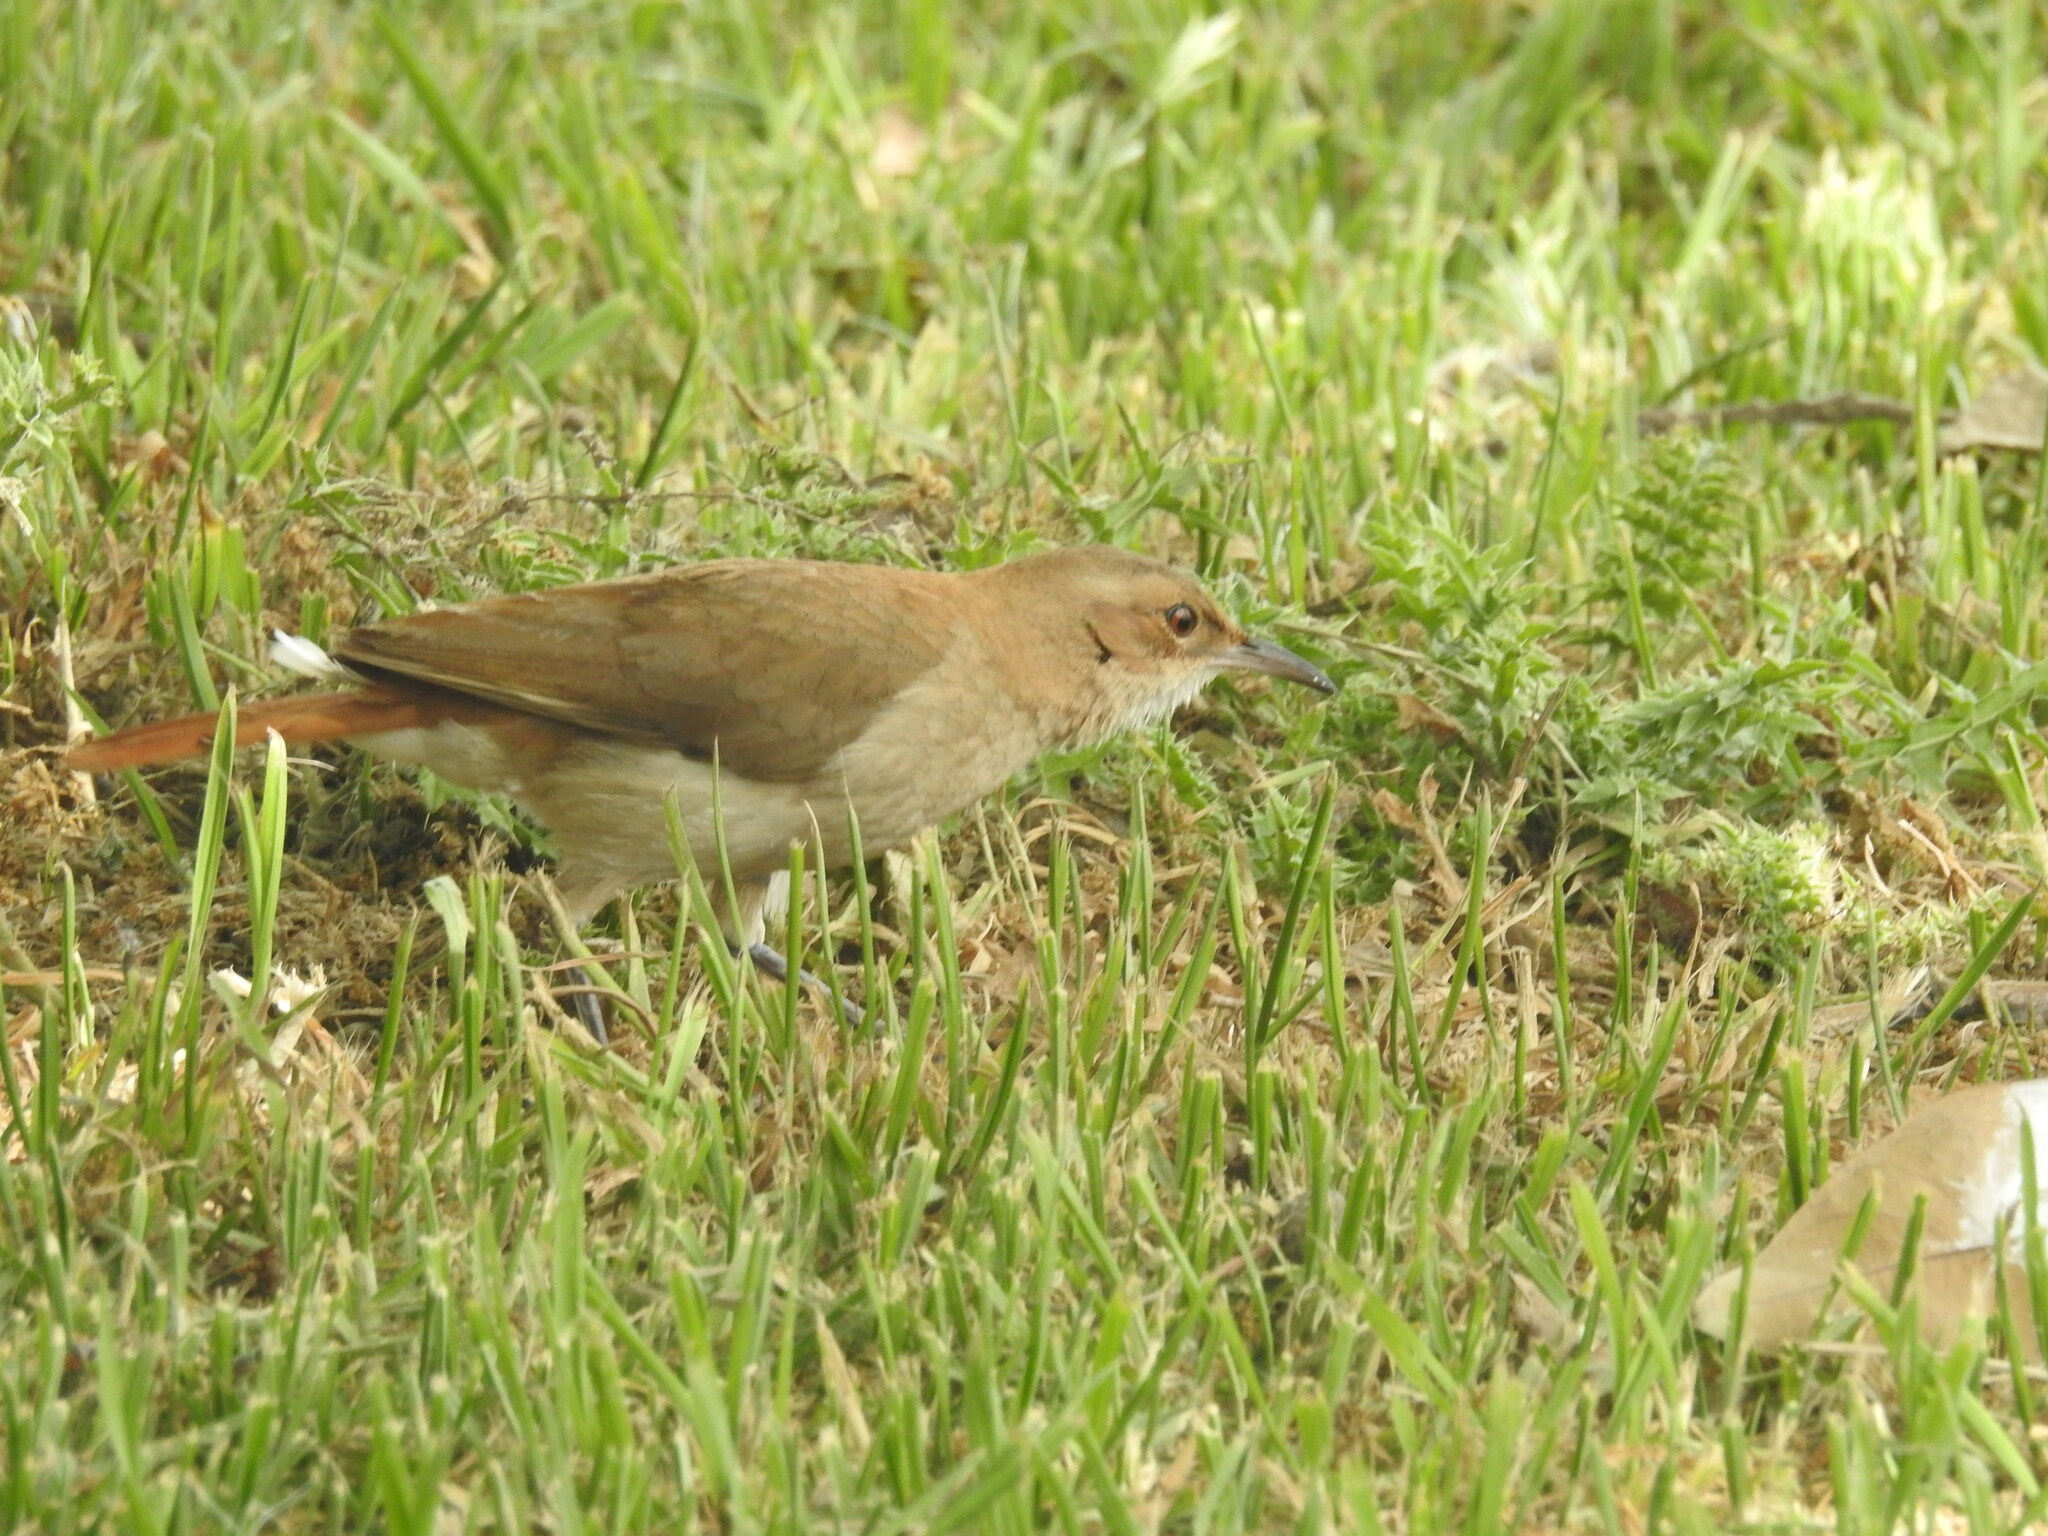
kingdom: Animalia
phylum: Chordata
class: Aves
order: Passeriformes
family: Furnariidae
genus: Furnarius
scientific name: Furnarius rufus
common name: Rufous hornero
